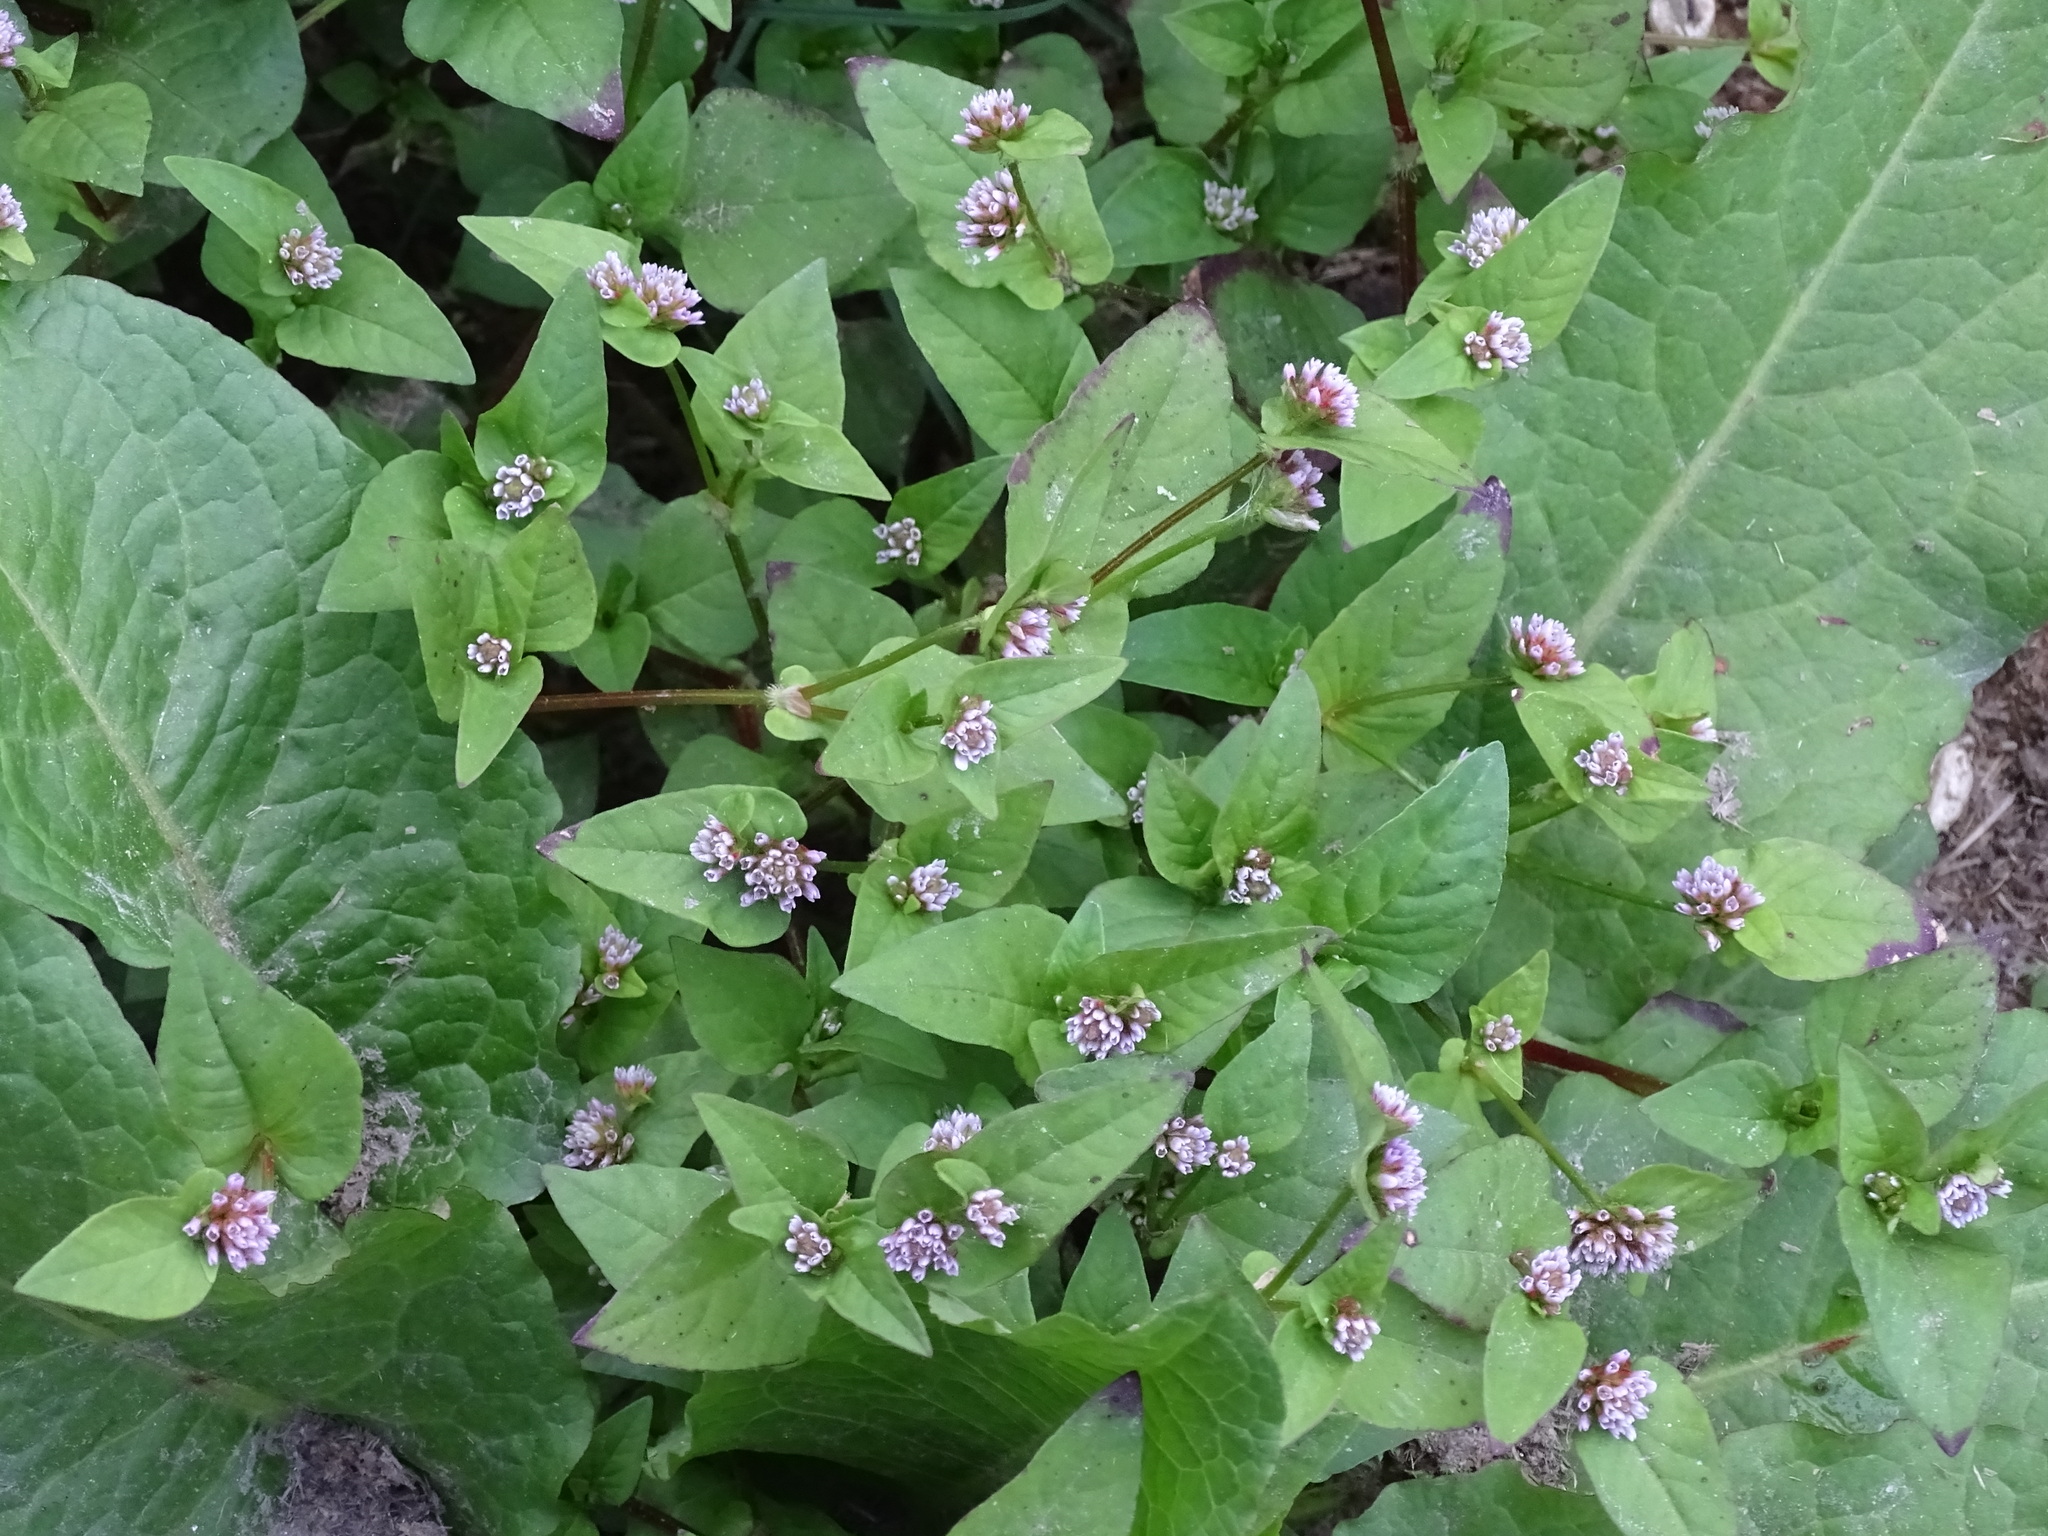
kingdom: Plantae
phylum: Tracheophyta
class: Magnoliopsida
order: Caryophyllales
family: Polygonaceae
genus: Persicaria
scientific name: Persicaria nepalensis
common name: Nepal persicaria
